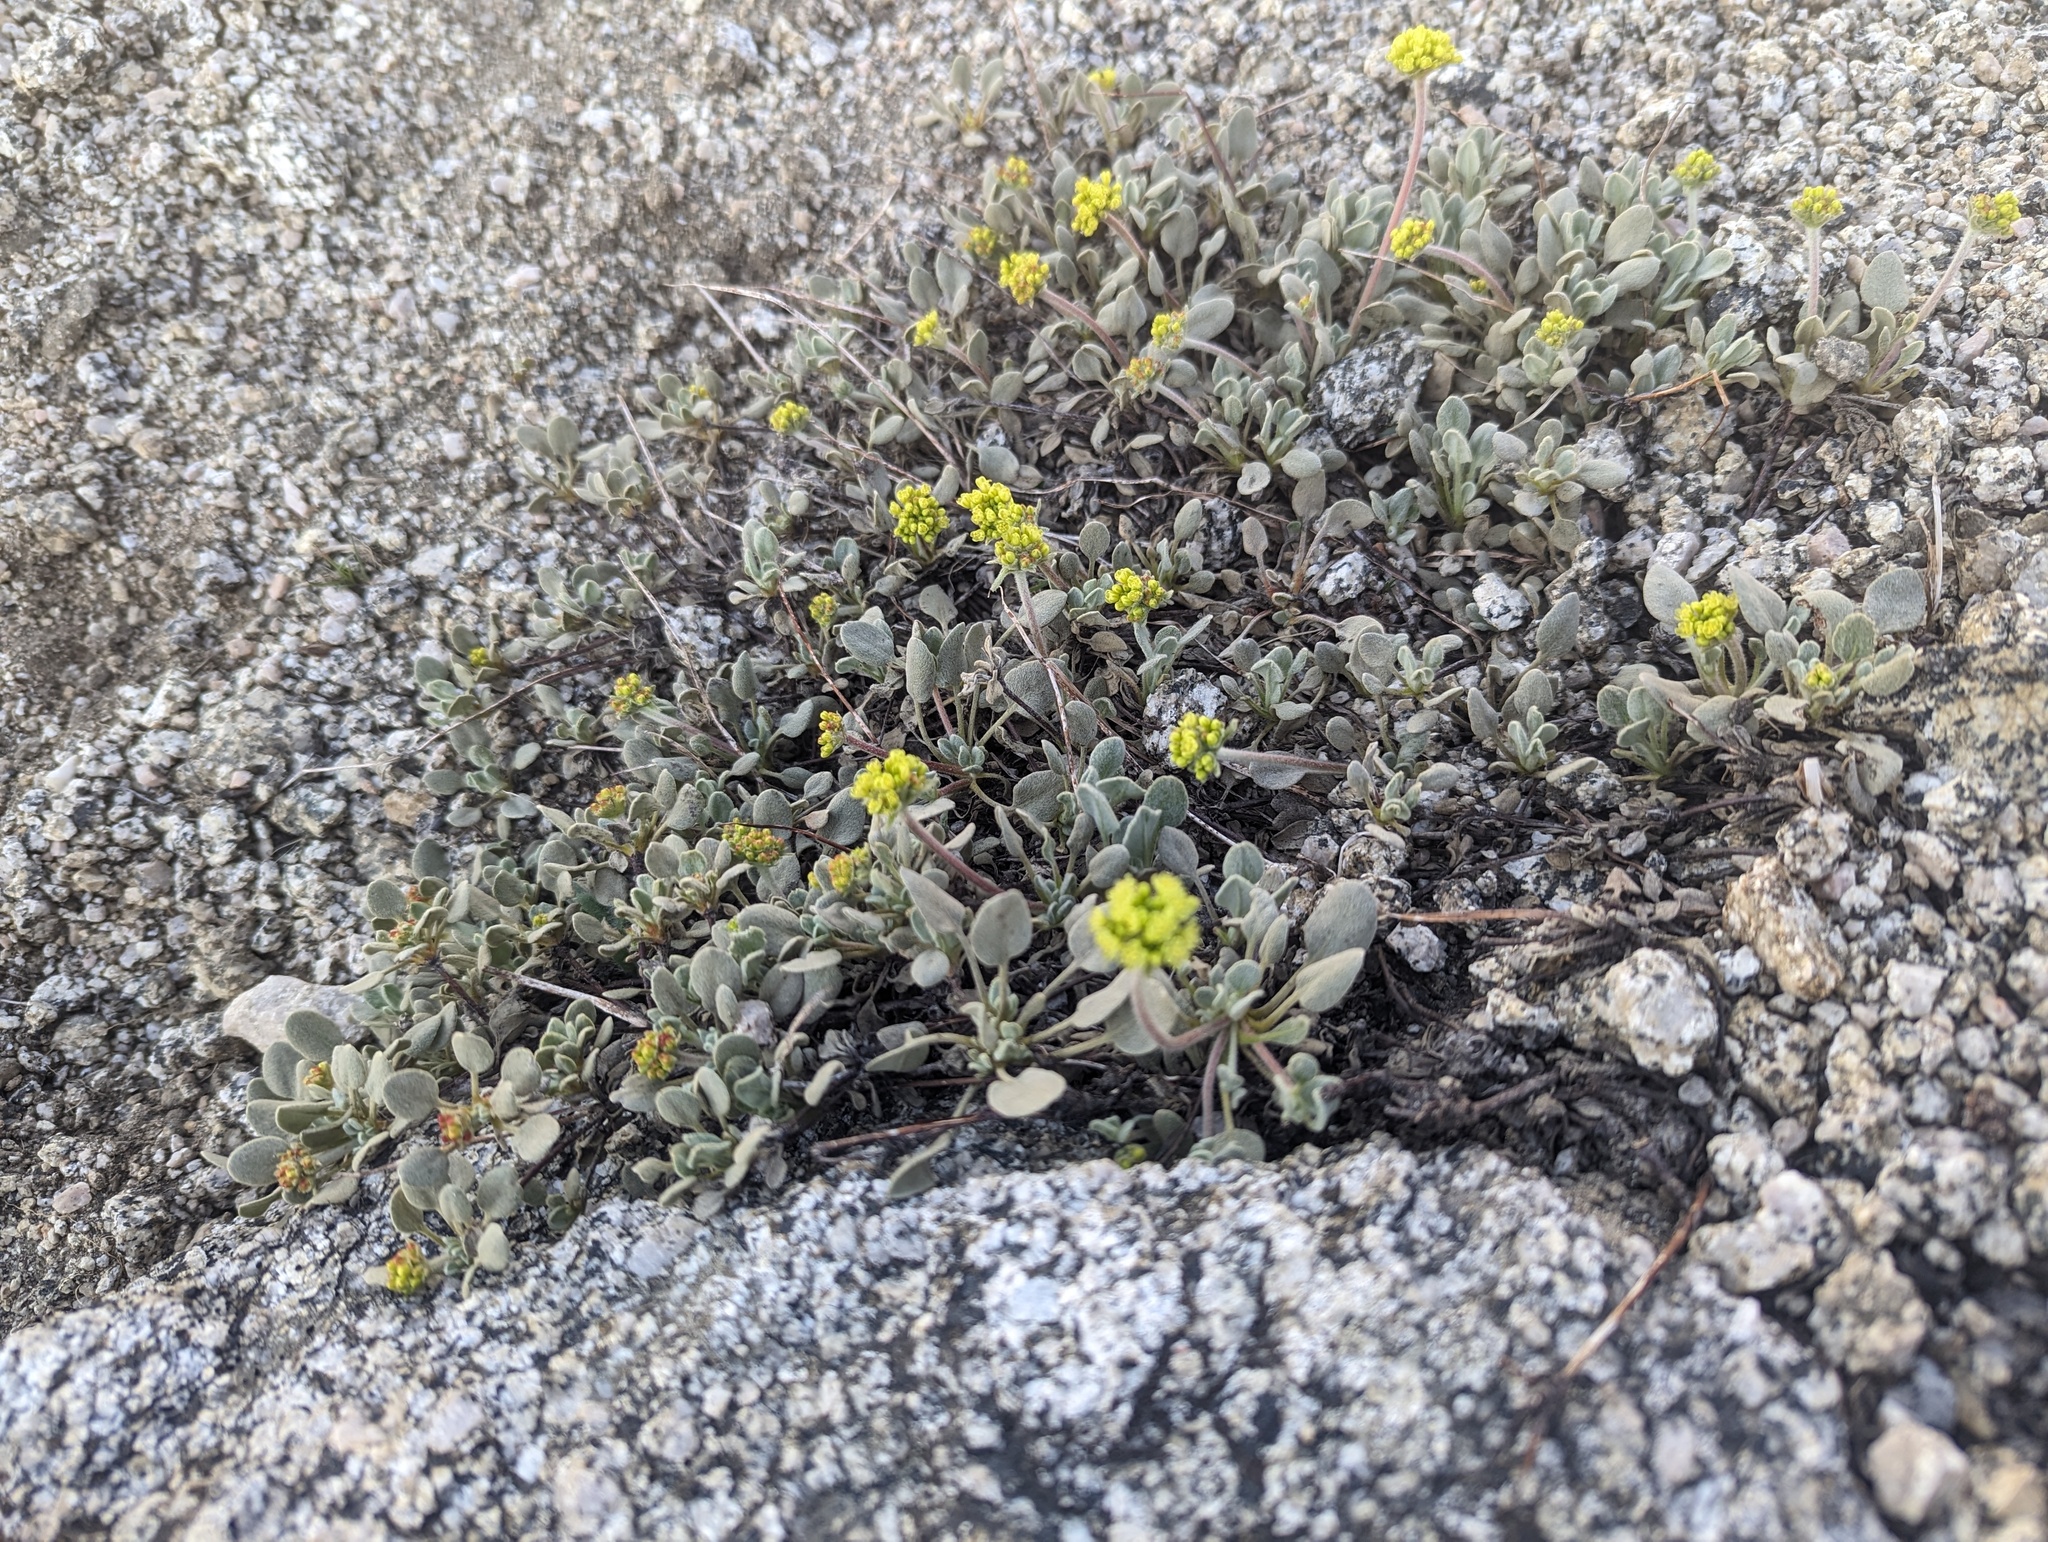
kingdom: Plantae
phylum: Tracheophyta
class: Magnoliopsida
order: Caryophyllales
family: Polygonaceae
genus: Eriogonum
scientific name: Eriogonum diclinum
